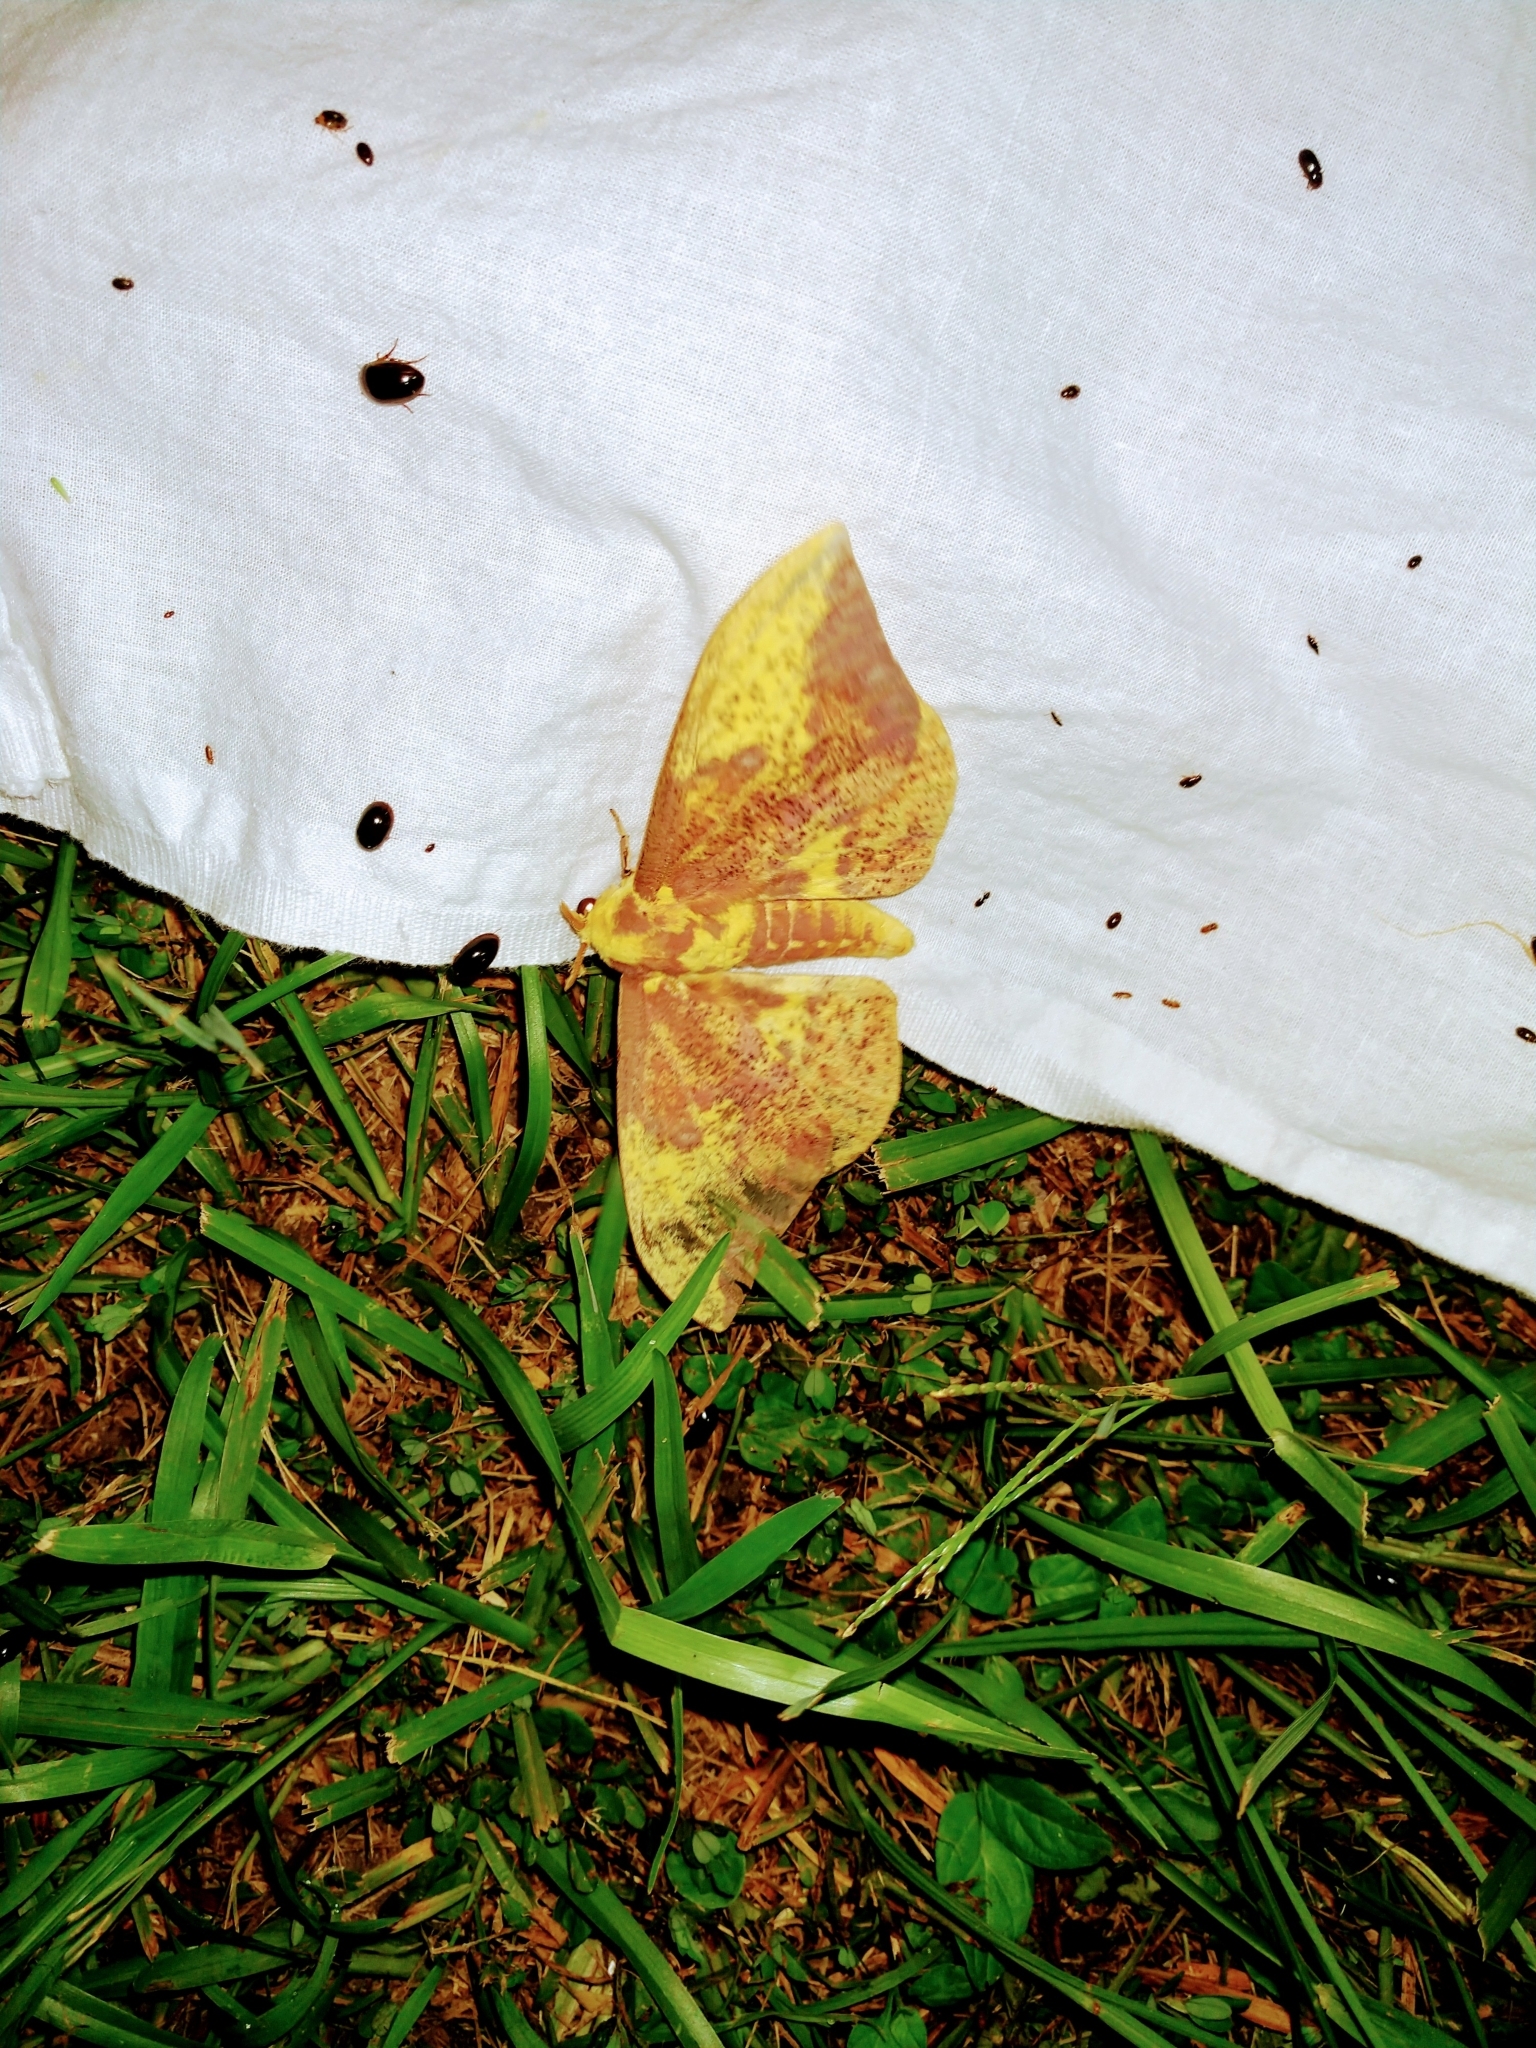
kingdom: Animalia
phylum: Arthropoda
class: Insecta
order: Lepidoptera
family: Saturniidae
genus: Eacles
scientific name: Eacles imperialis
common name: Imperial moth
